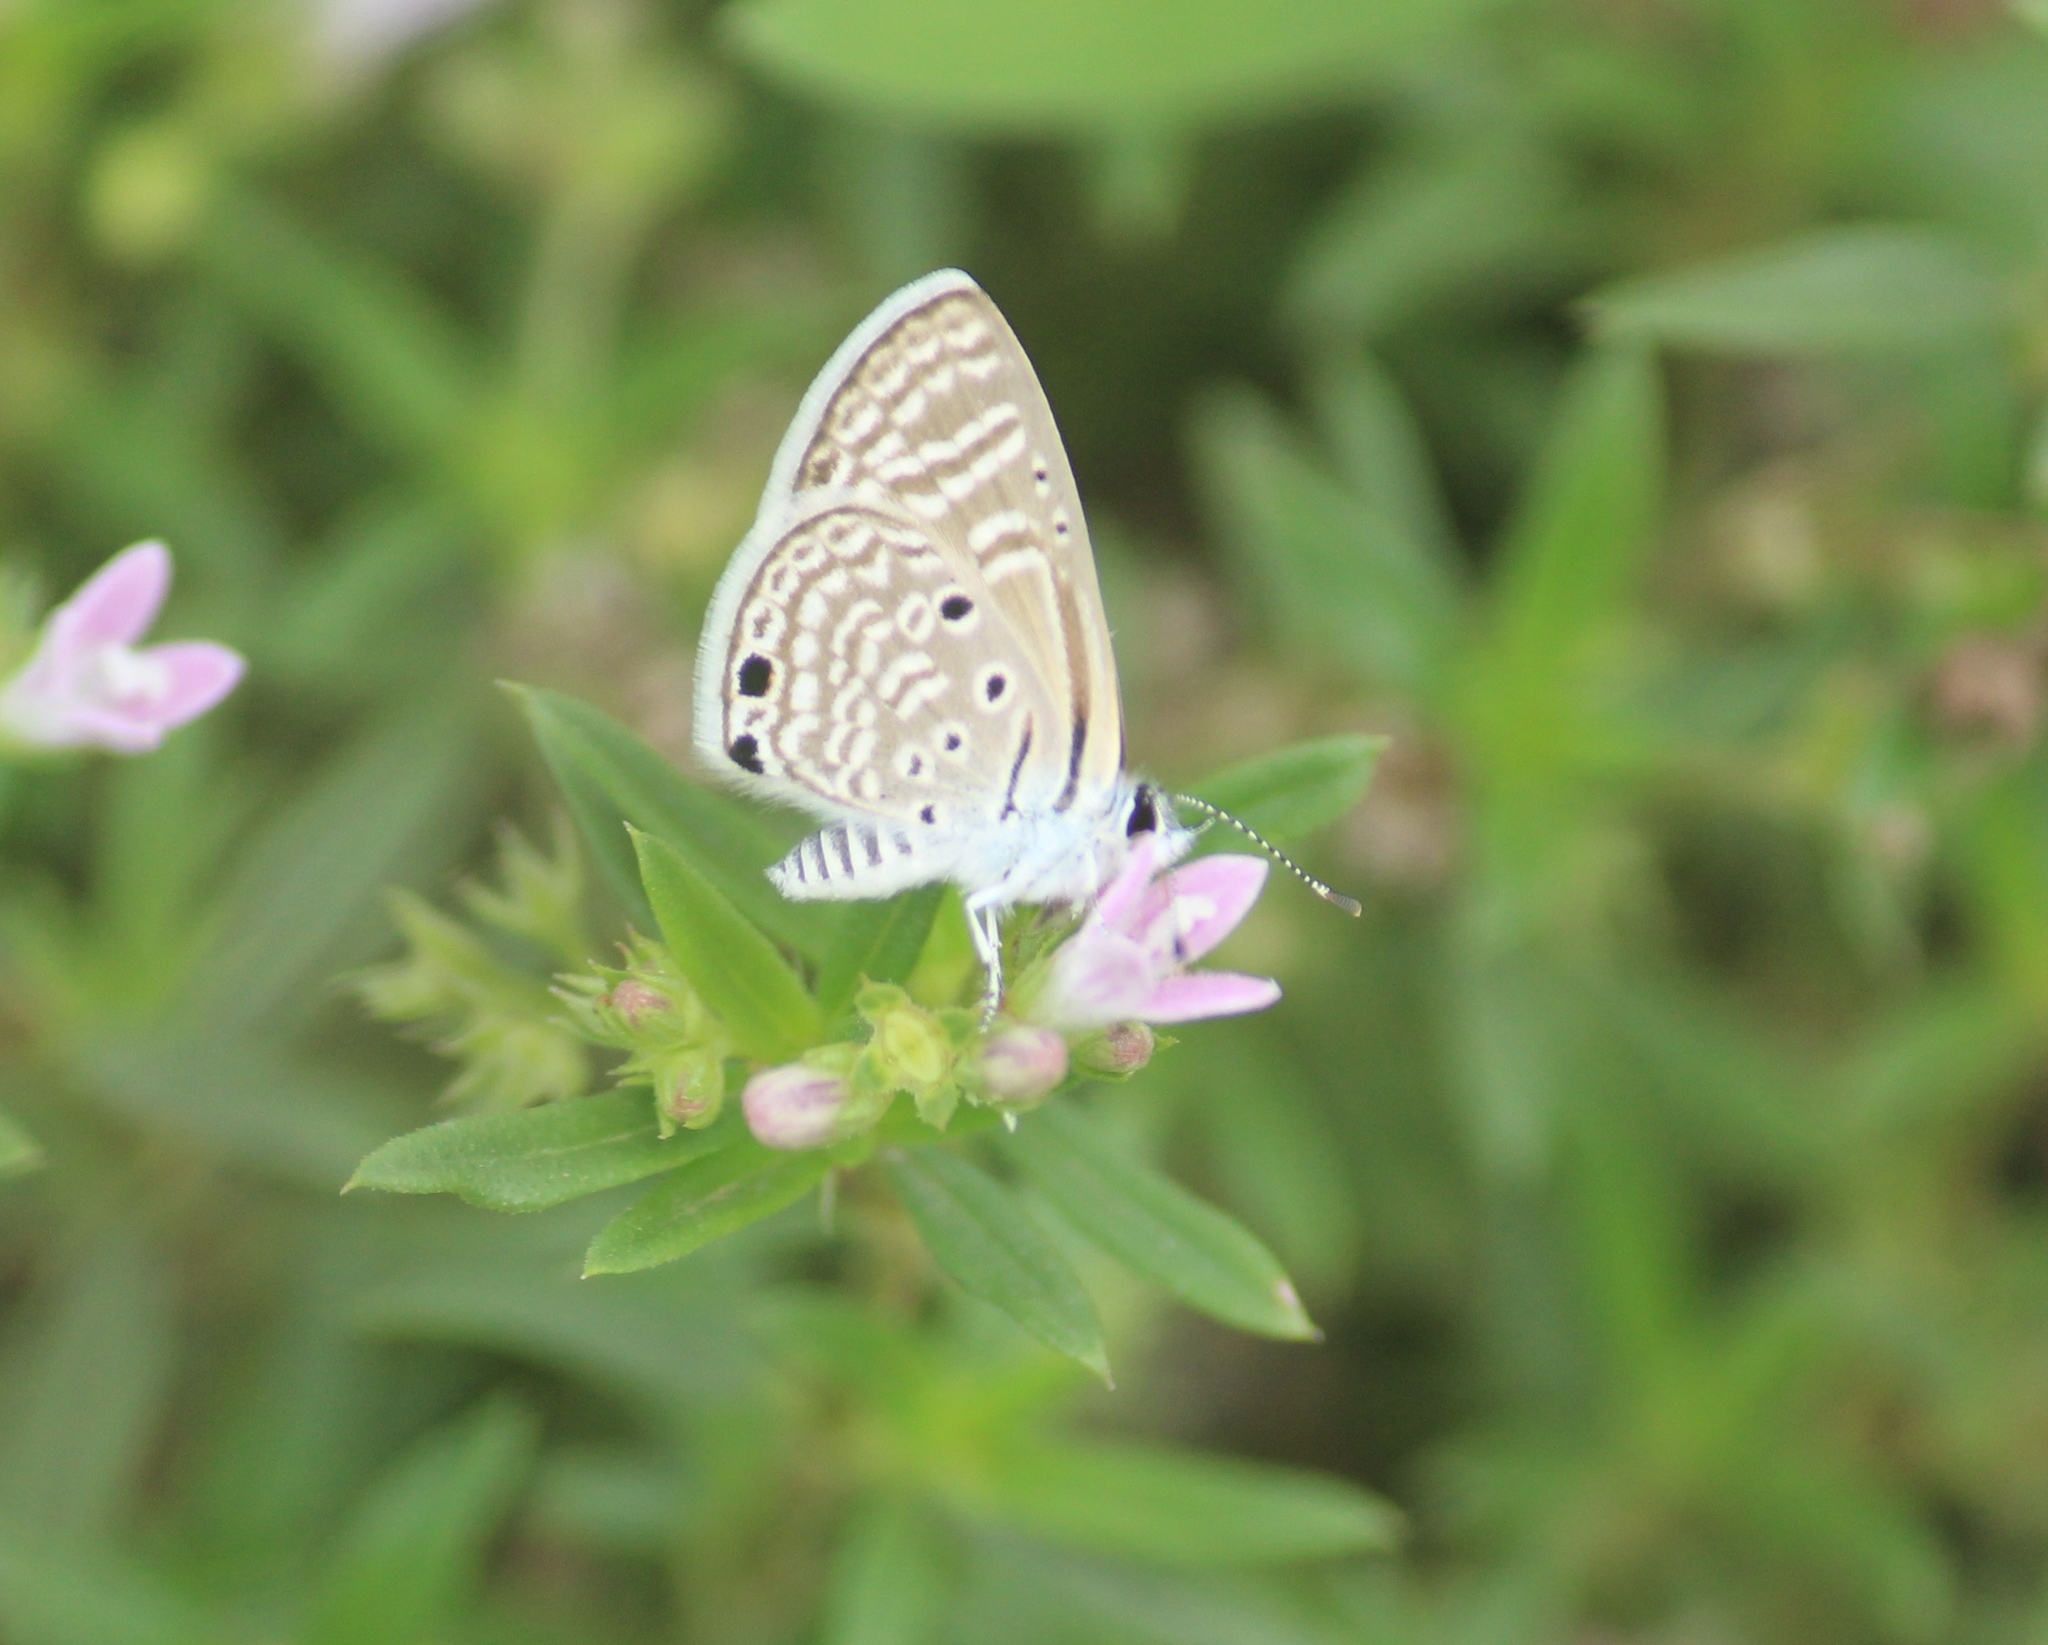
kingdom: Animalia
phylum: Arthropoda
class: Insecta
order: Lepidoptera
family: Lycaenidae
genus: Azanus
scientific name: Azanus ubaldus
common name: Desert babul blue
